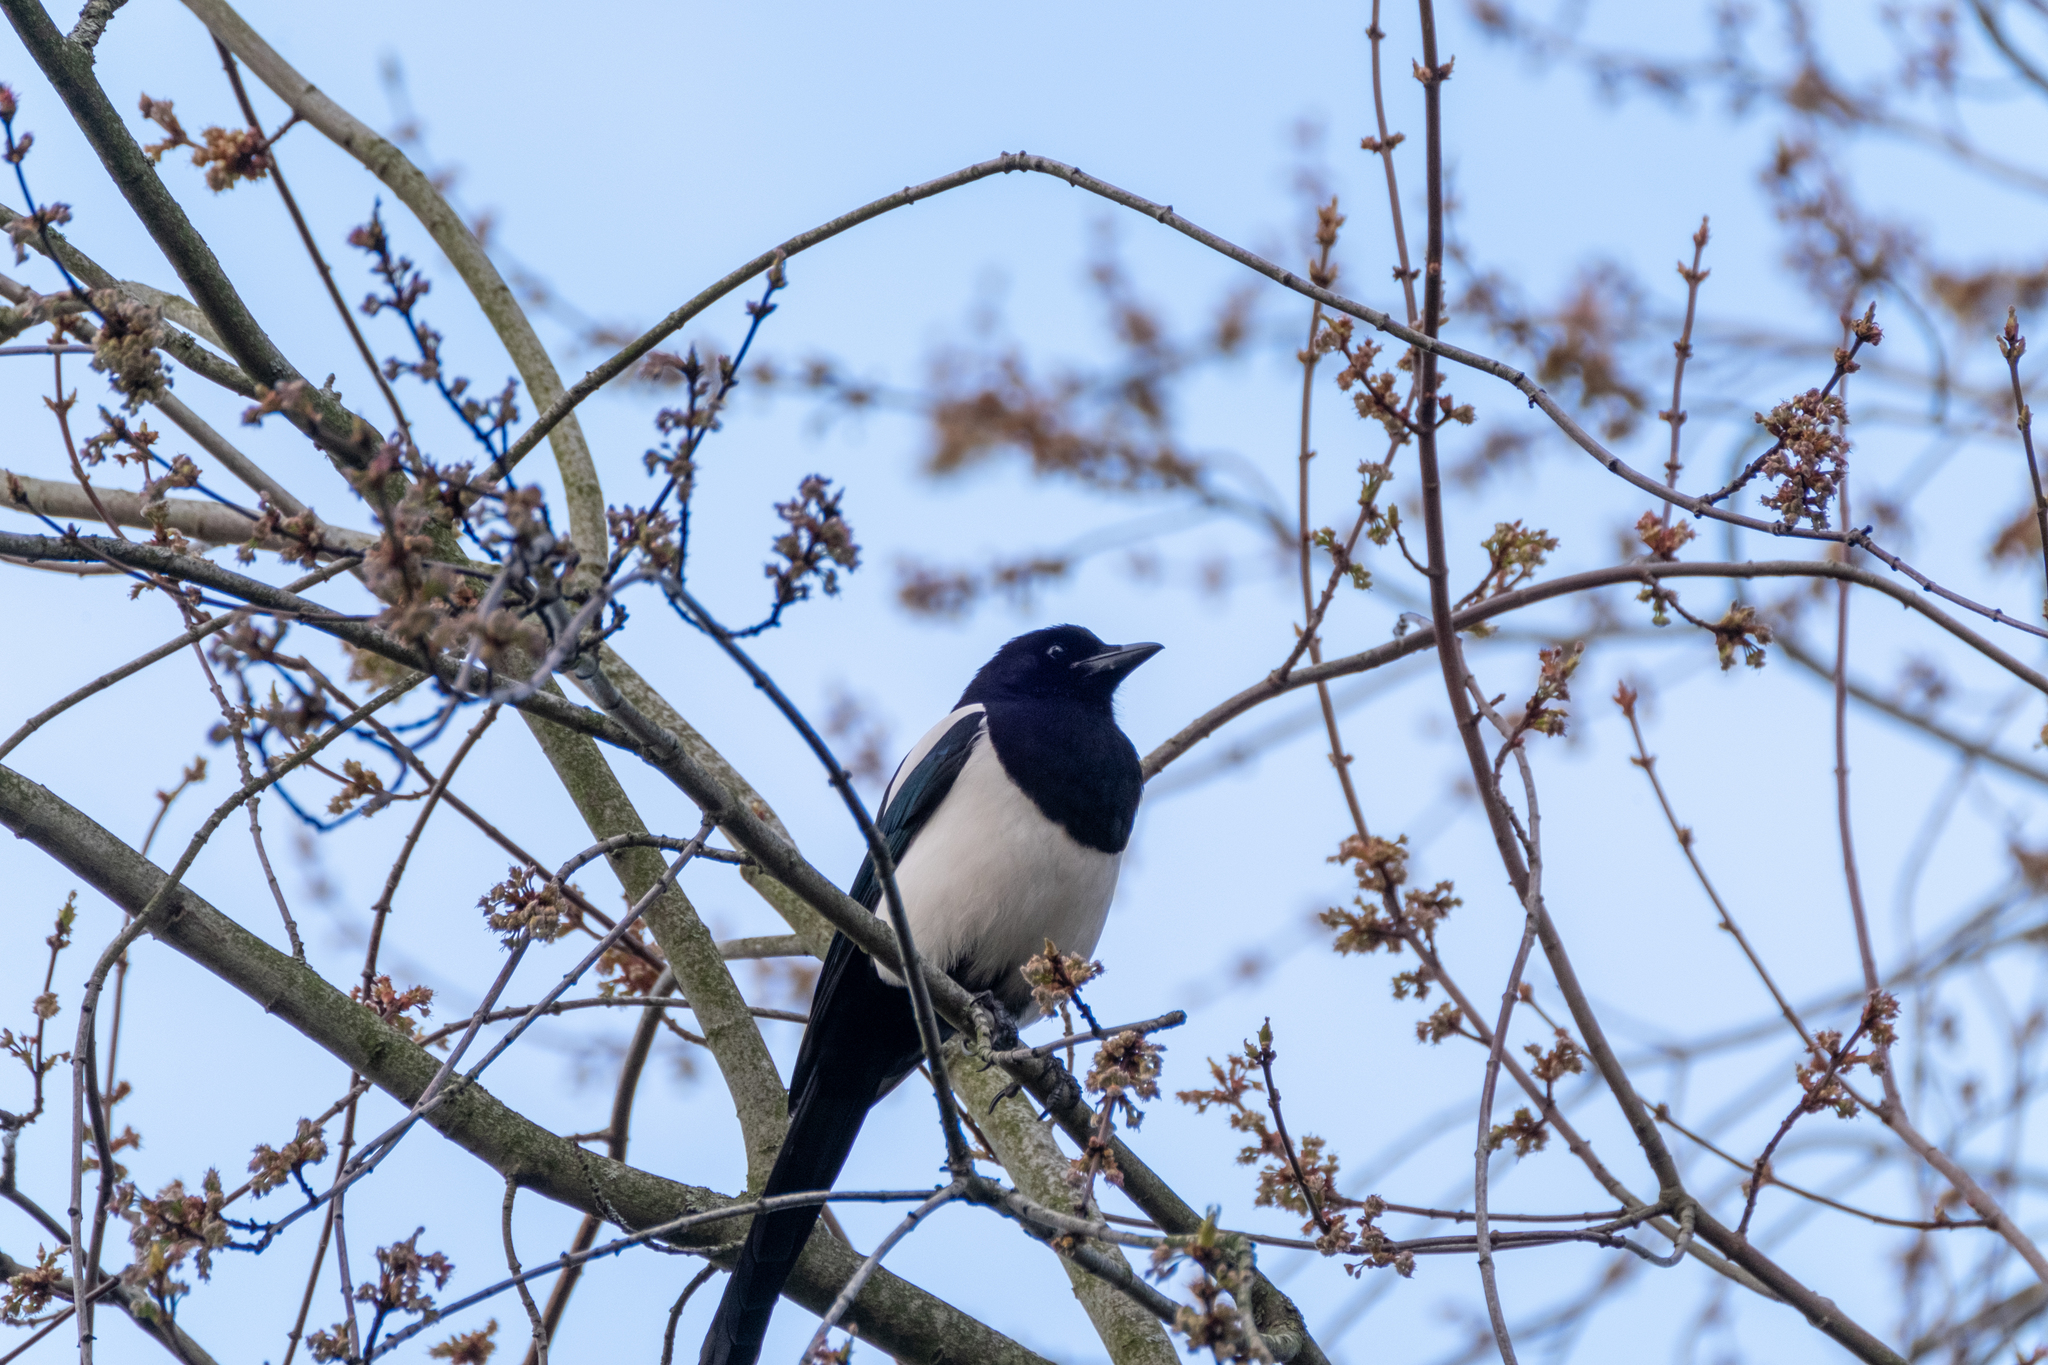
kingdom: Animalia
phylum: Chordata
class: Aves
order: Passeriformes
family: Corvidae
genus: Pica
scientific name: Pica pica
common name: Eurasian magpie
